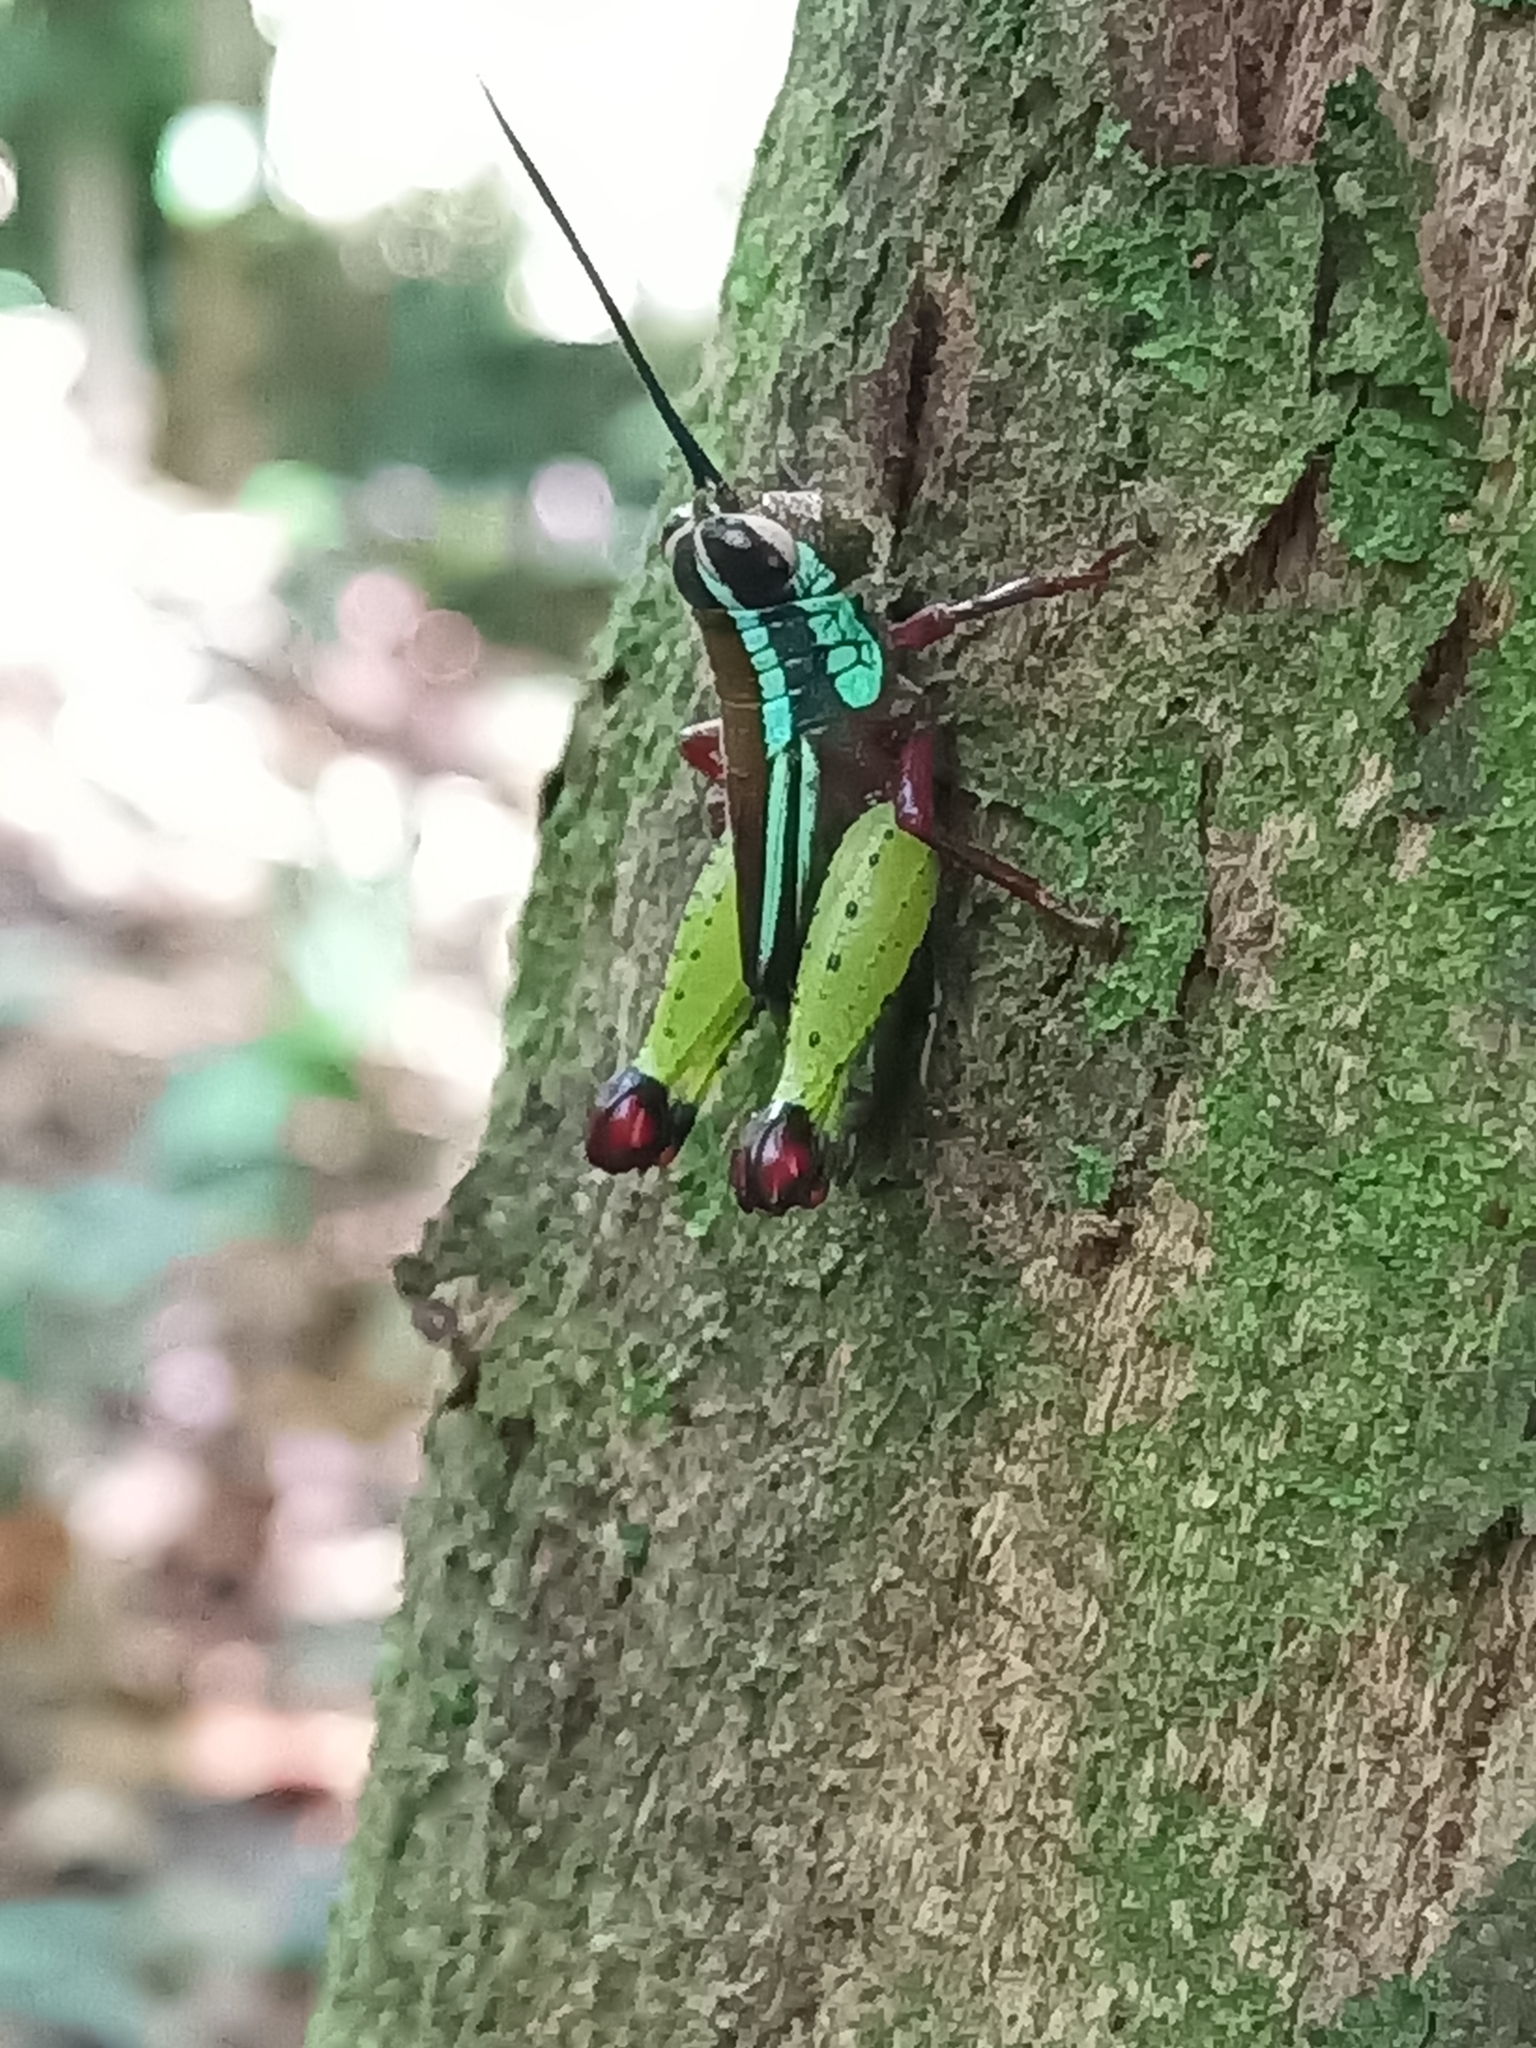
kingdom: Animalia
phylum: Arthropoda
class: Insecta
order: Orthoptera
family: Romaleidae
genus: Othnacris
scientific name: Othnacris surdaster
